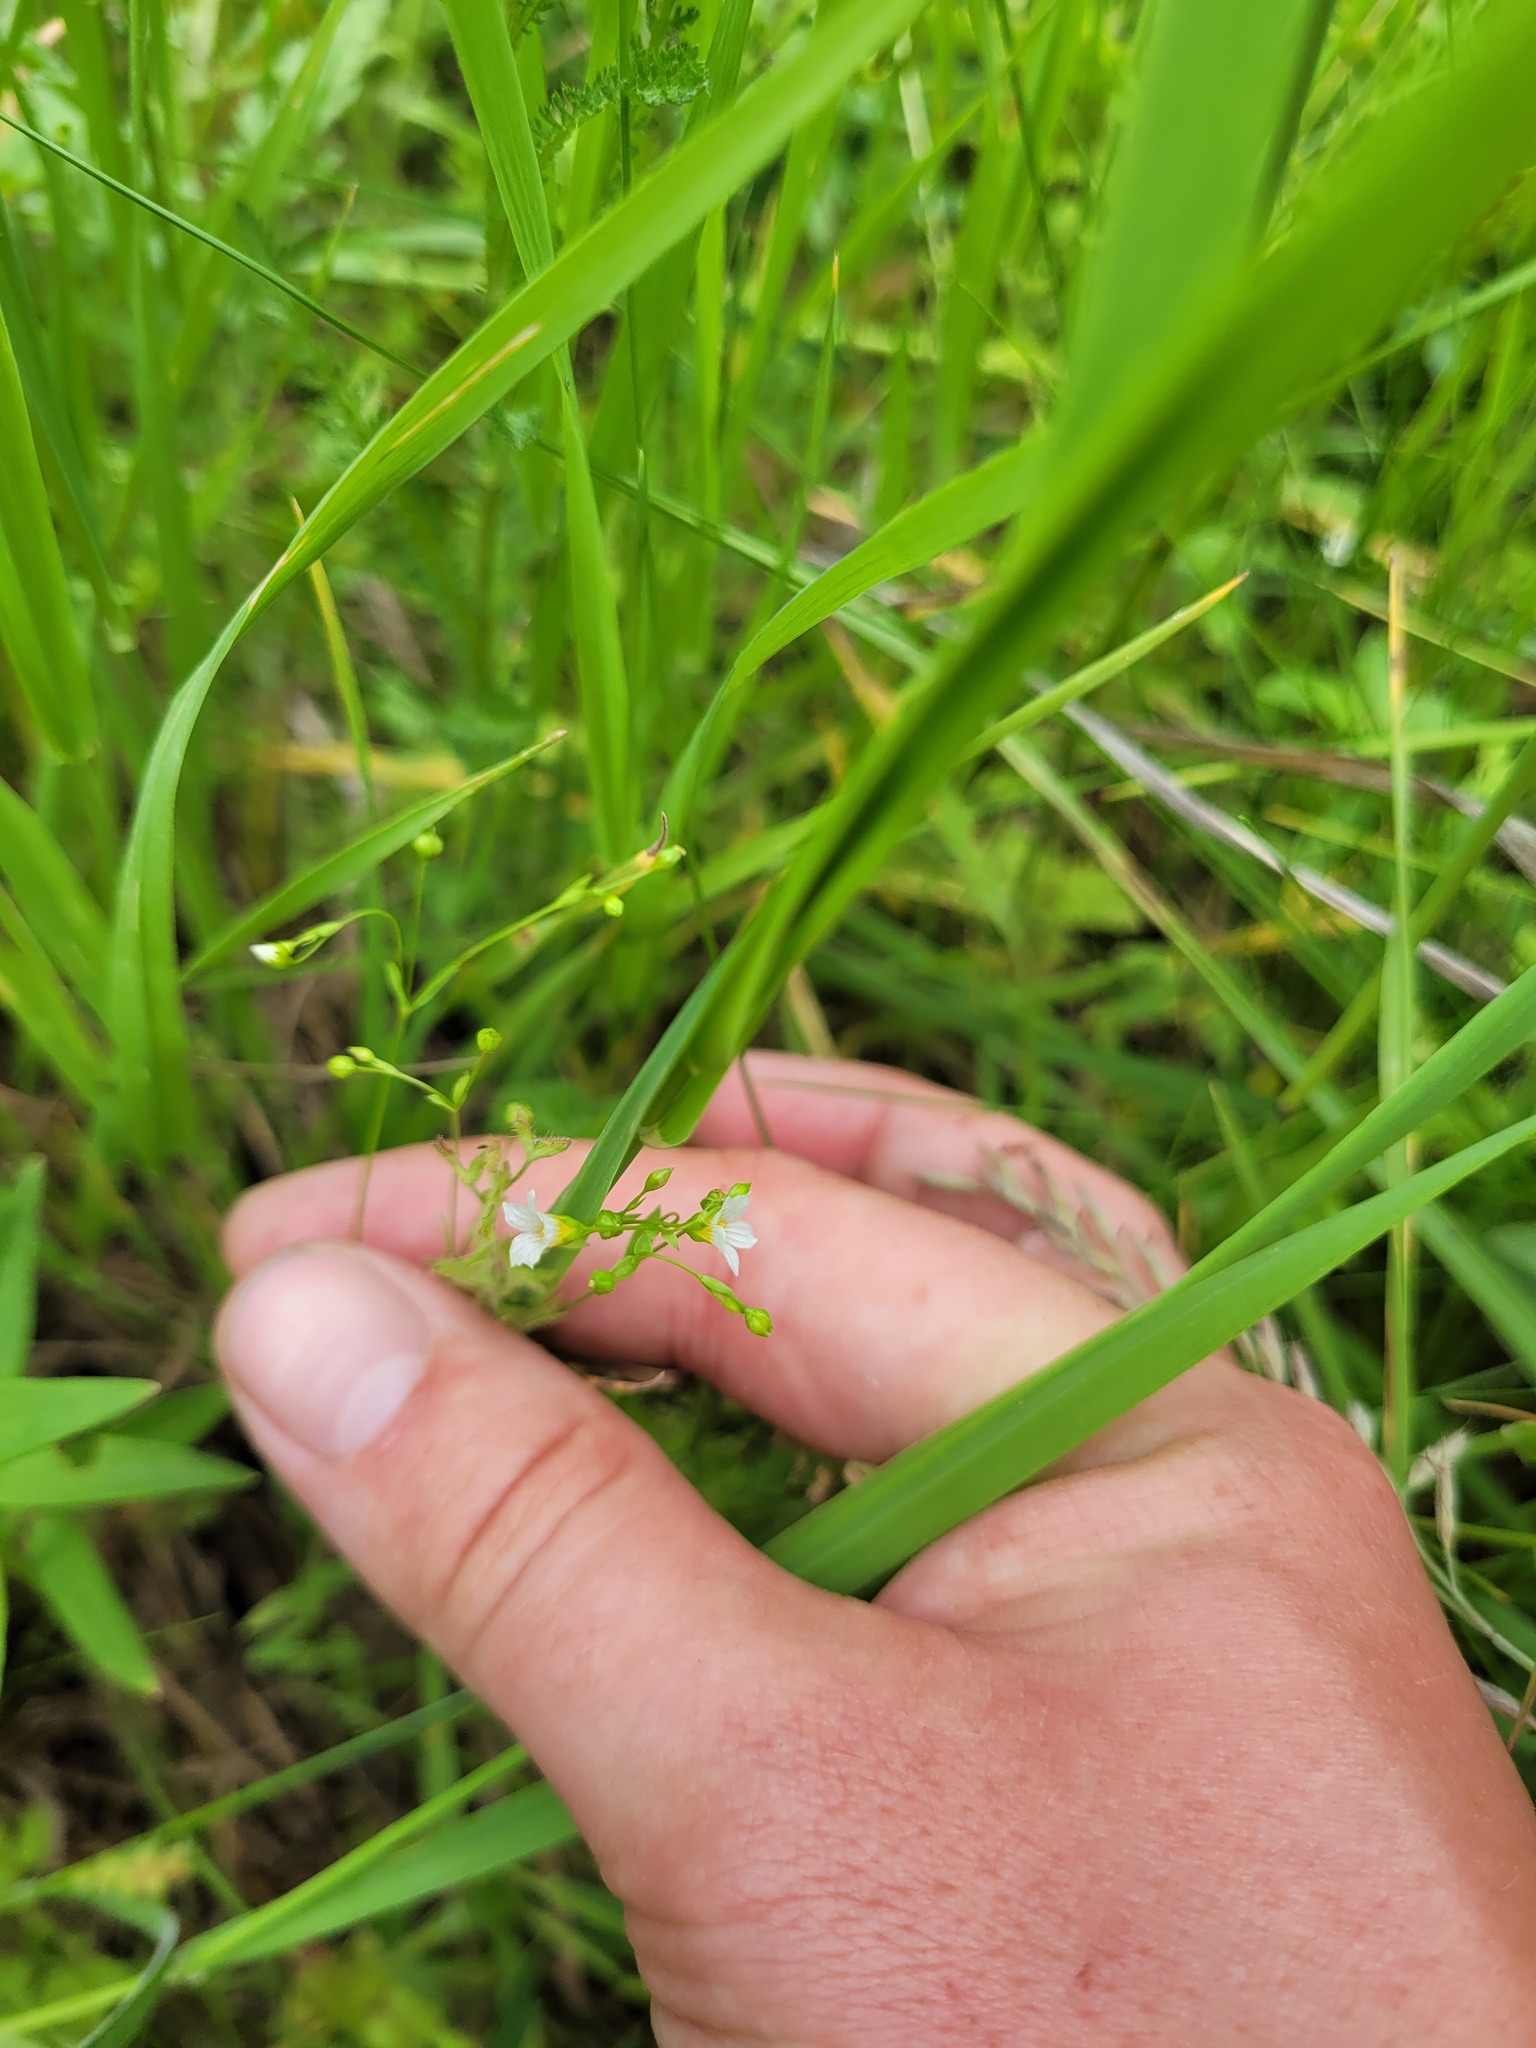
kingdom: Plantae
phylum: Tracheophyta
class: Magnoliopsida
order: Malpighiales
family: Linaceae
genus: Linum
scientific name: Linum catharticum
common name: Fairy flax
